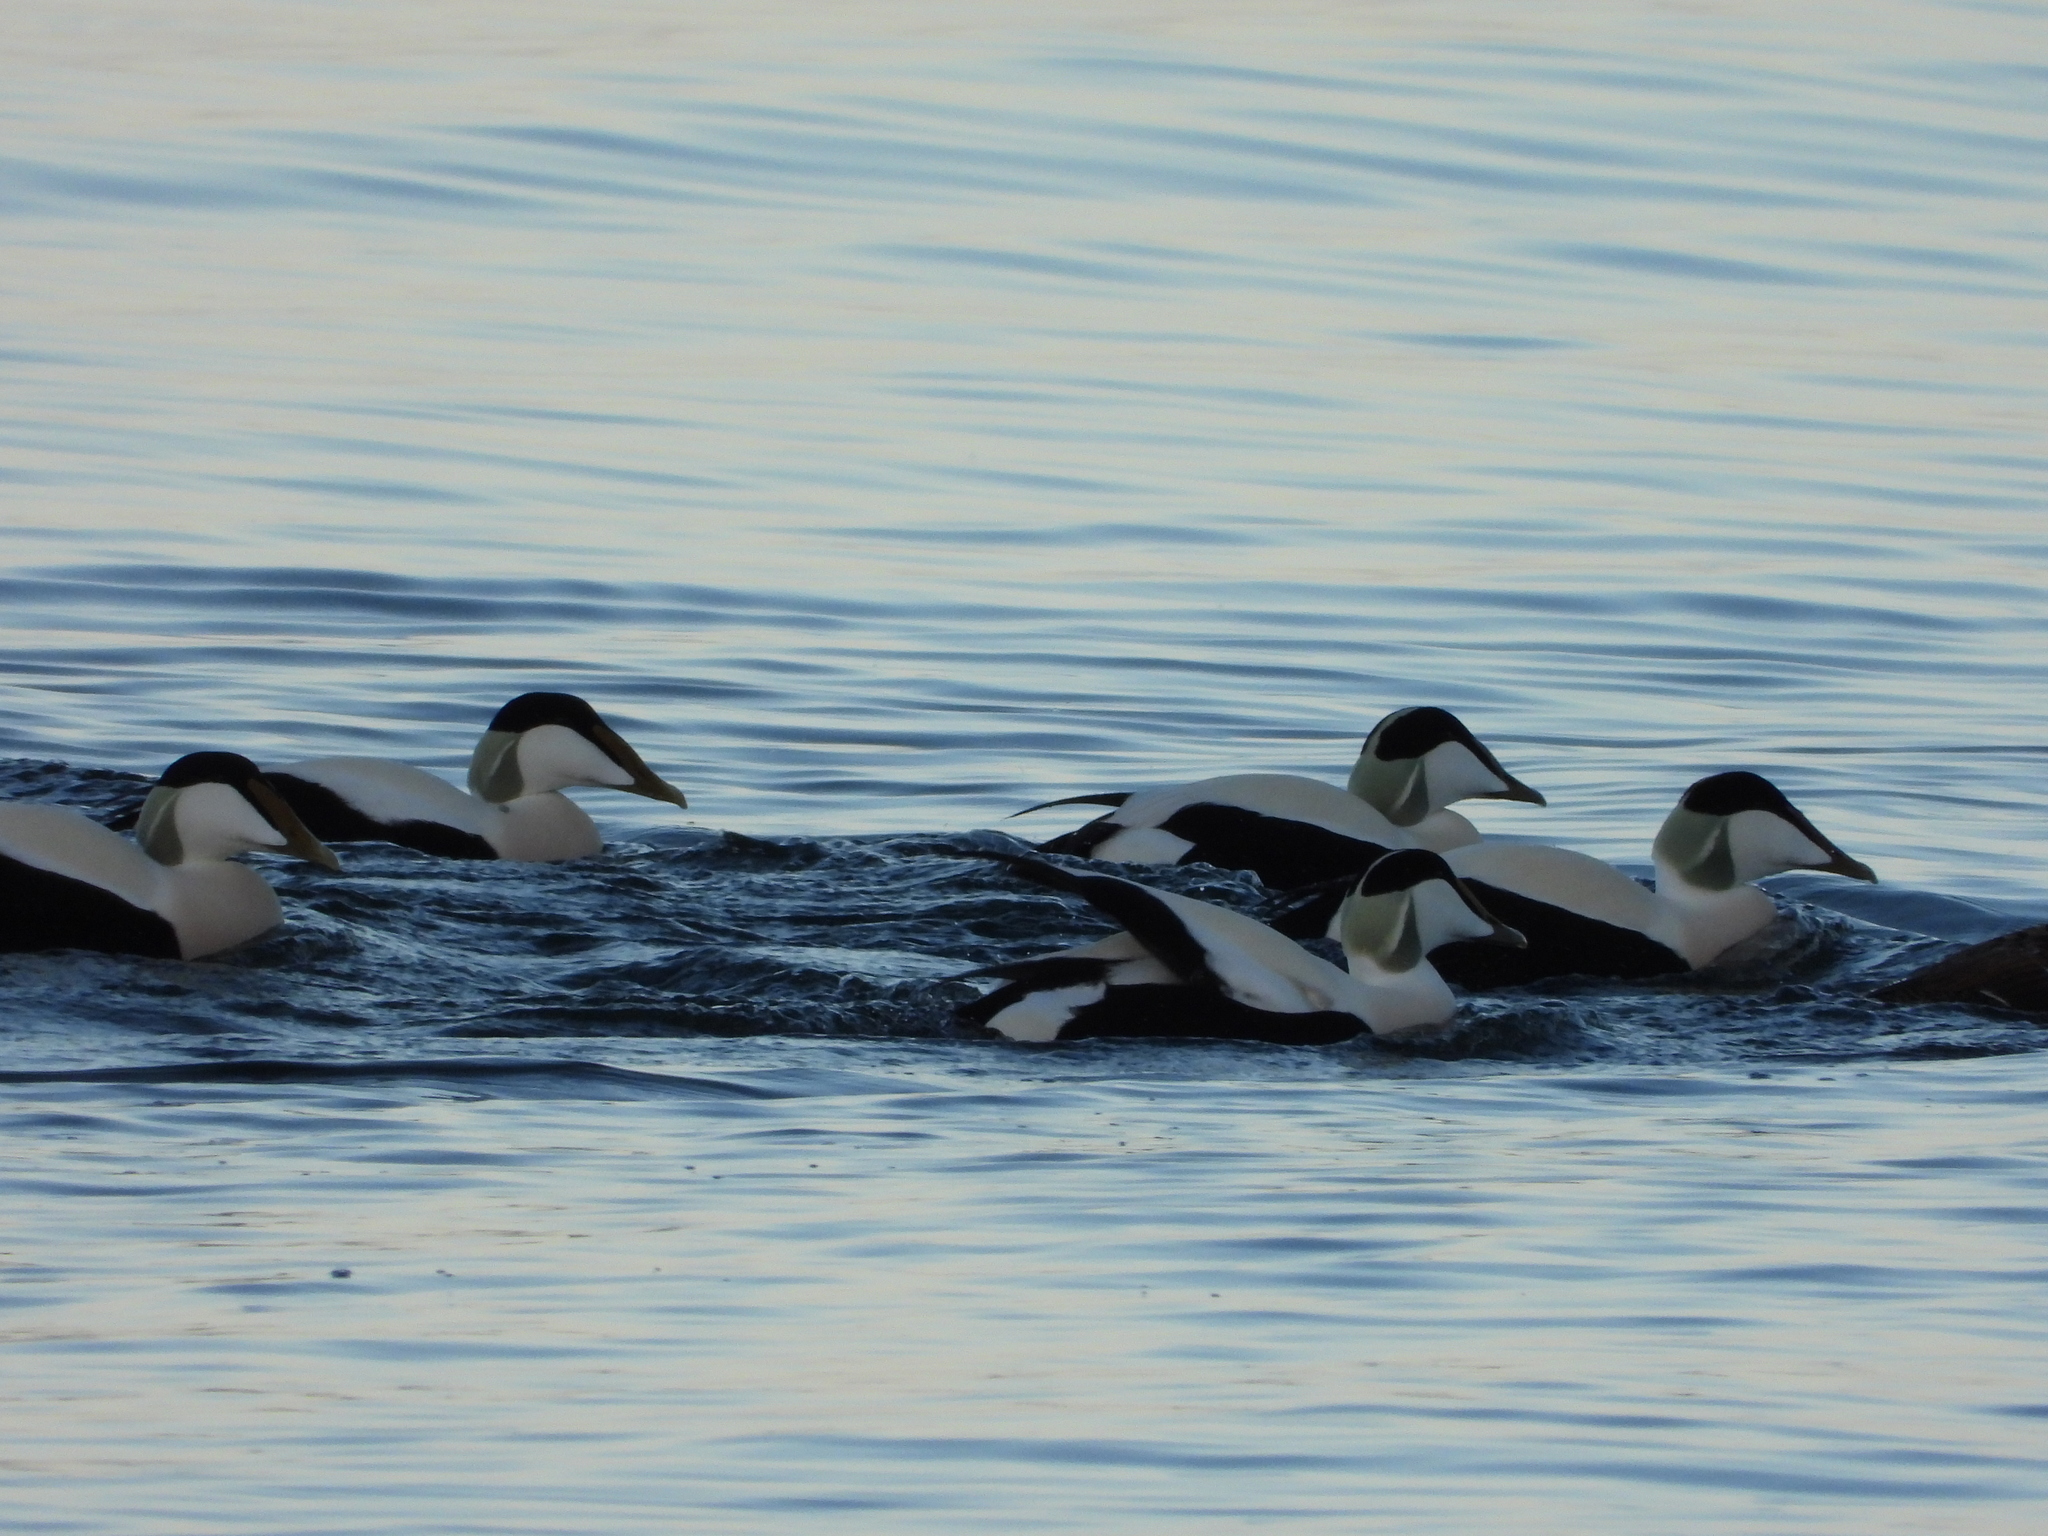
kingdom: Animalia
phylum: Chordata
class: Aves
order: Anseriformes
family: Anatidae
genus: Somateria
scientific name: Somateria mollissima
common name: Common eider
